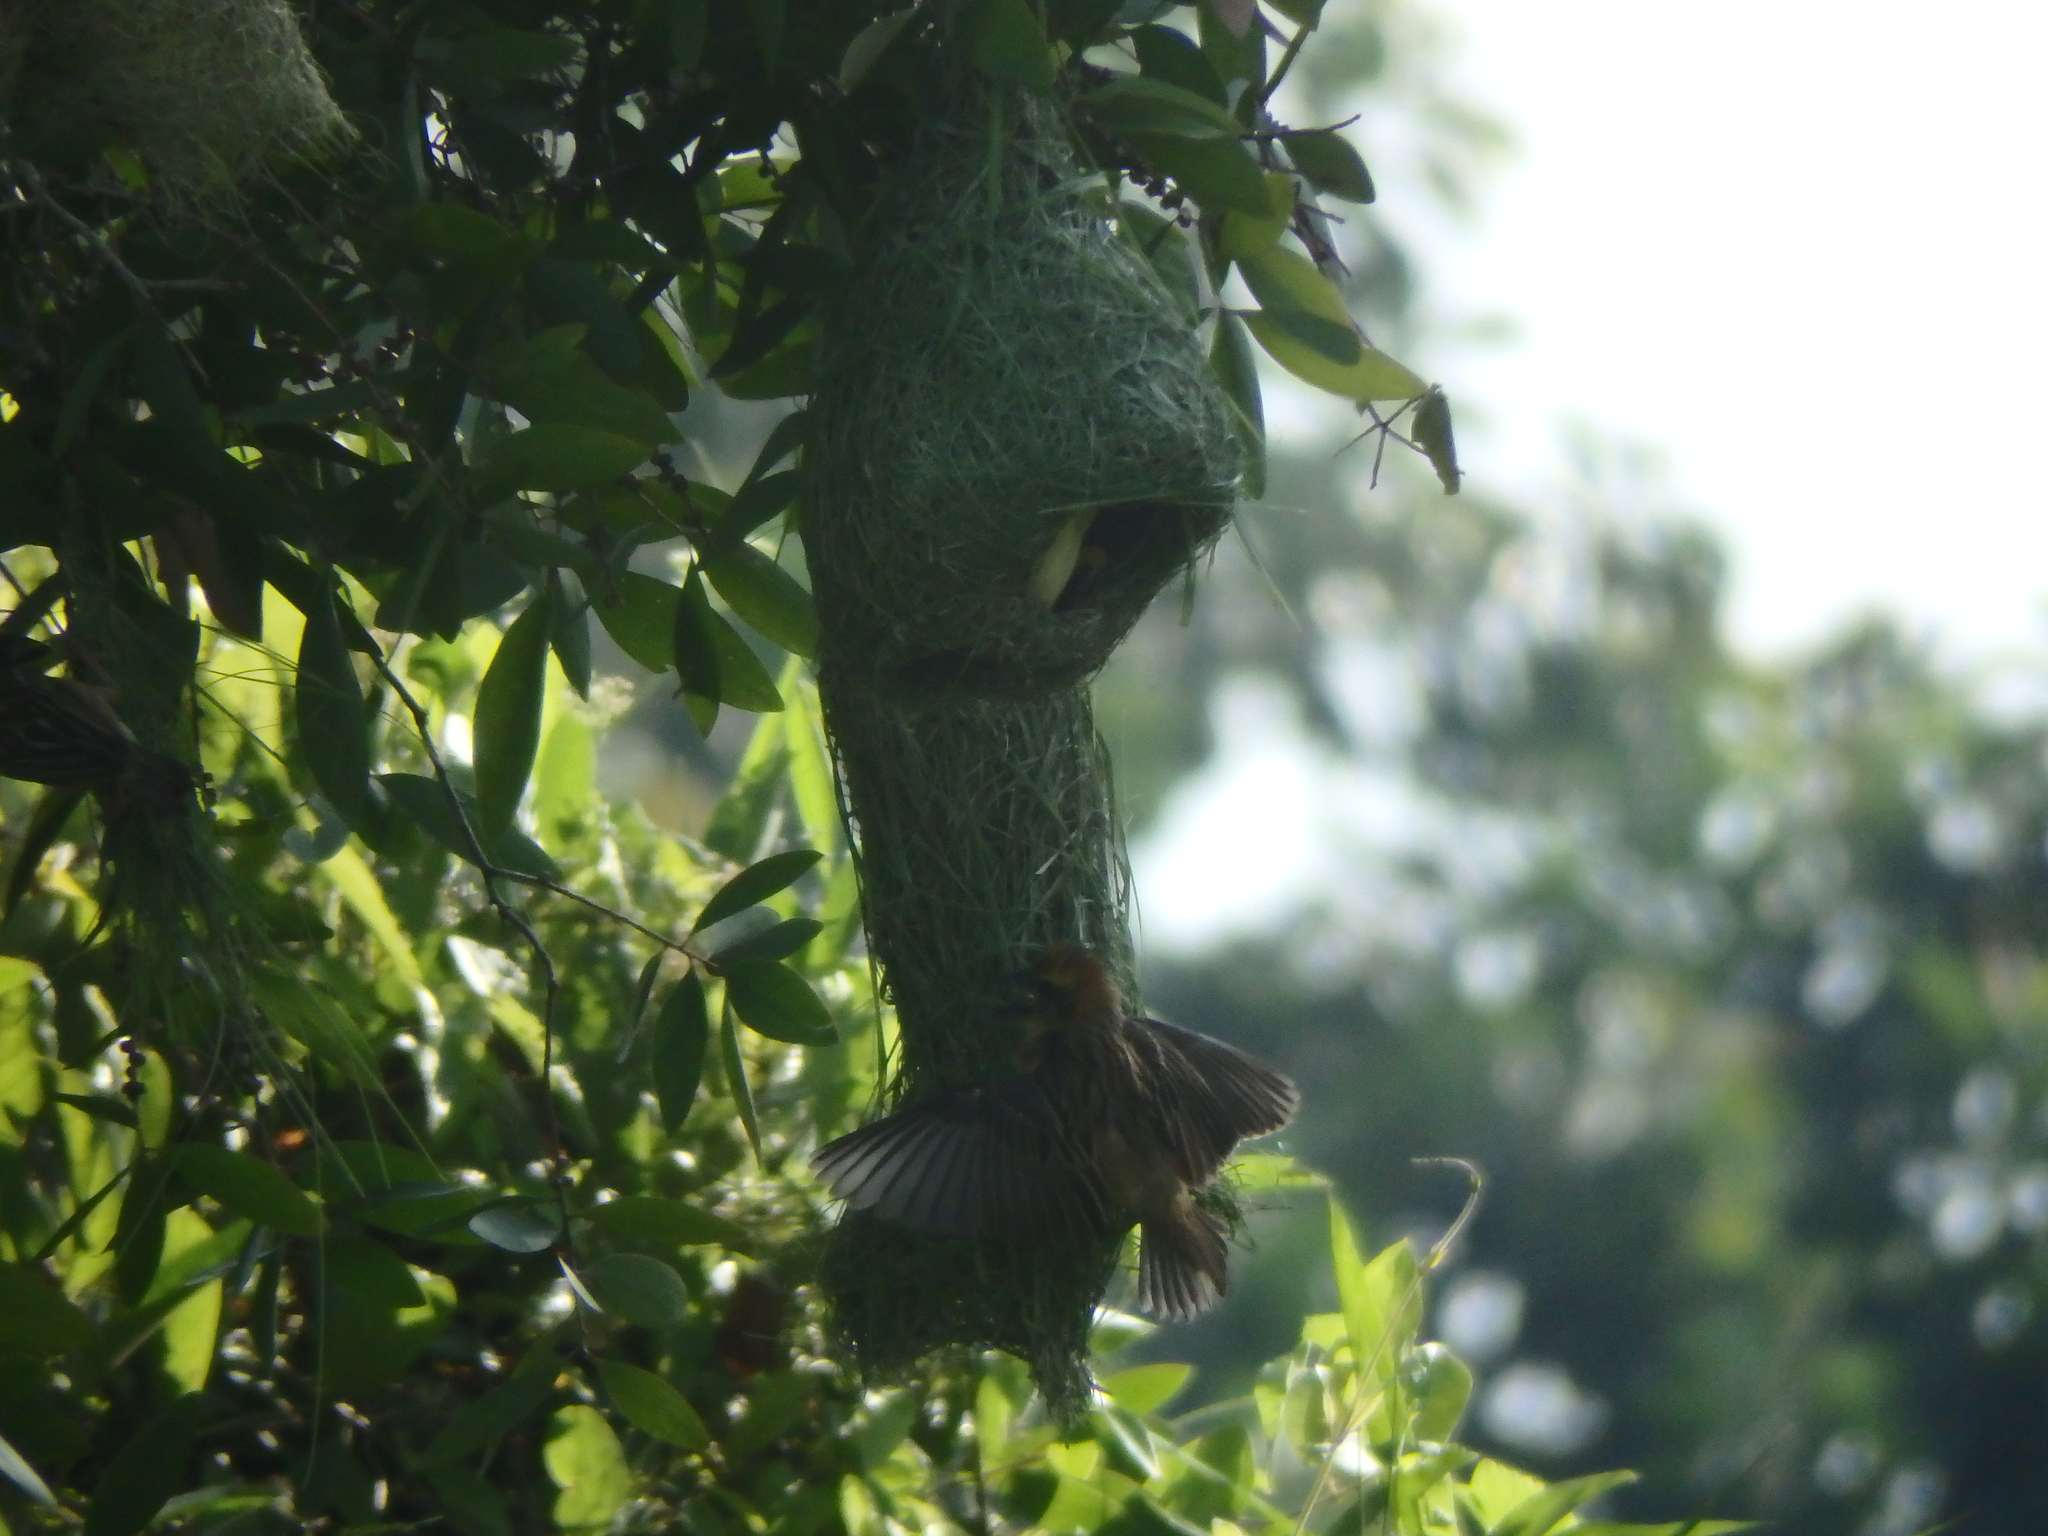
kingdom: Animalia
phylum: Chordata
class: Aves
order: Passeriformes
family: Ploceidae
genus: Ploceus
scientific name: Ploceus philippinus
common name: Baya weaver
